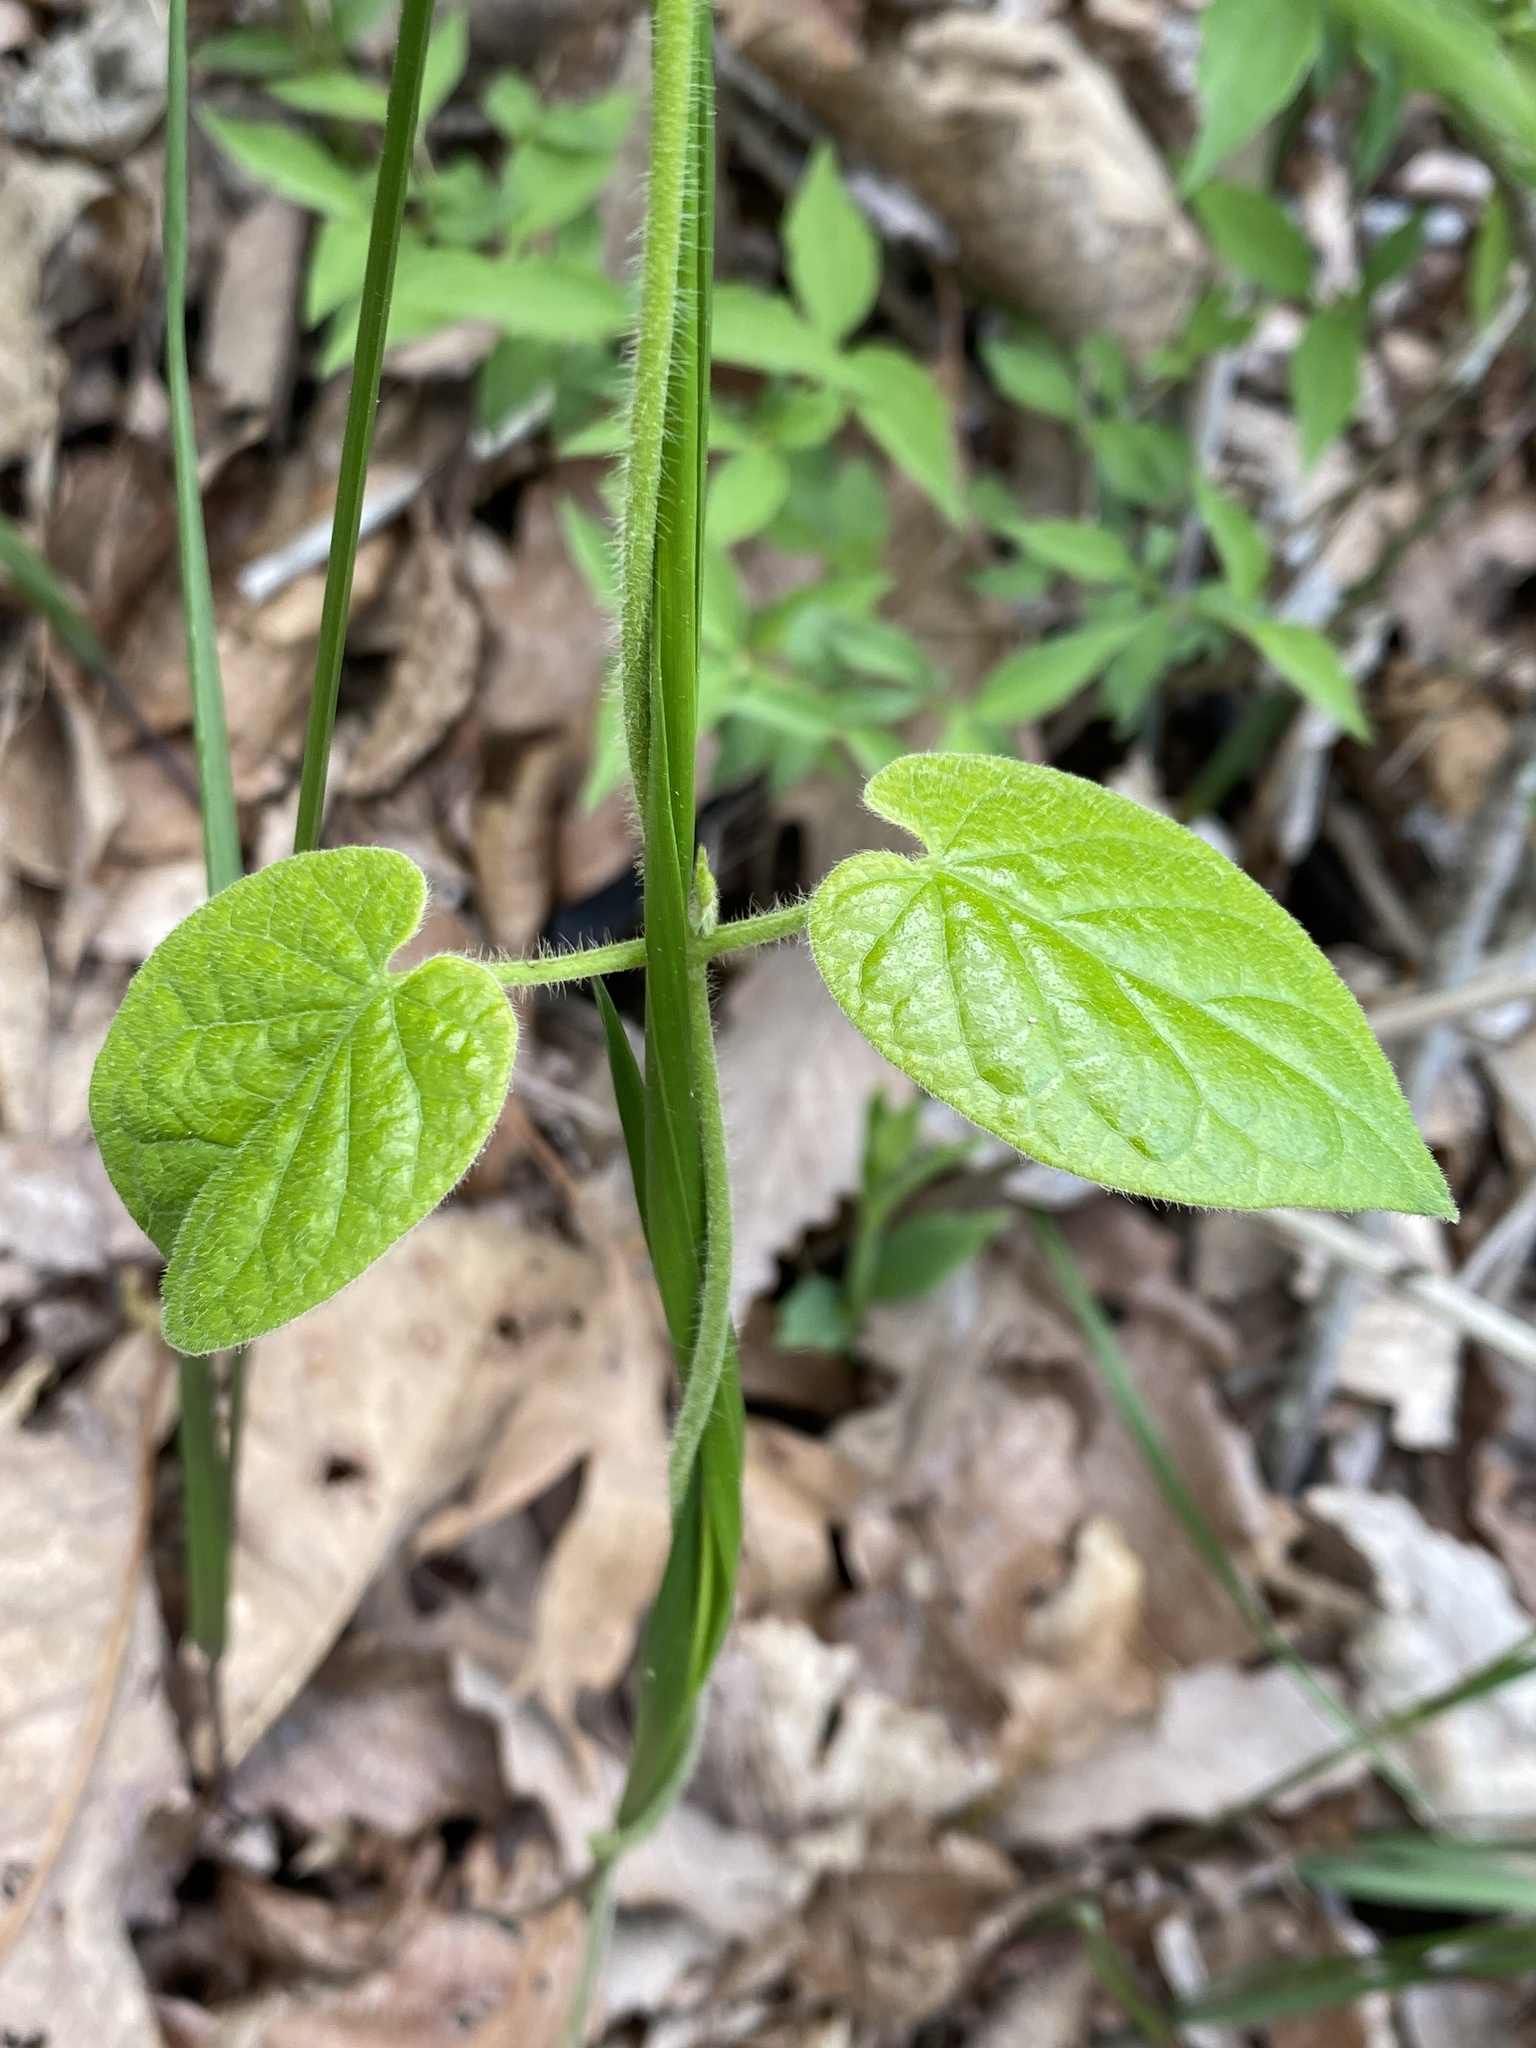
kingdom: Plantae
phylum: Tracheophyta
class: Magnoliopsida
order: Gentianales
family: Apocynaceae
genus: Matelea
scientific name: Matelea carolinensis
